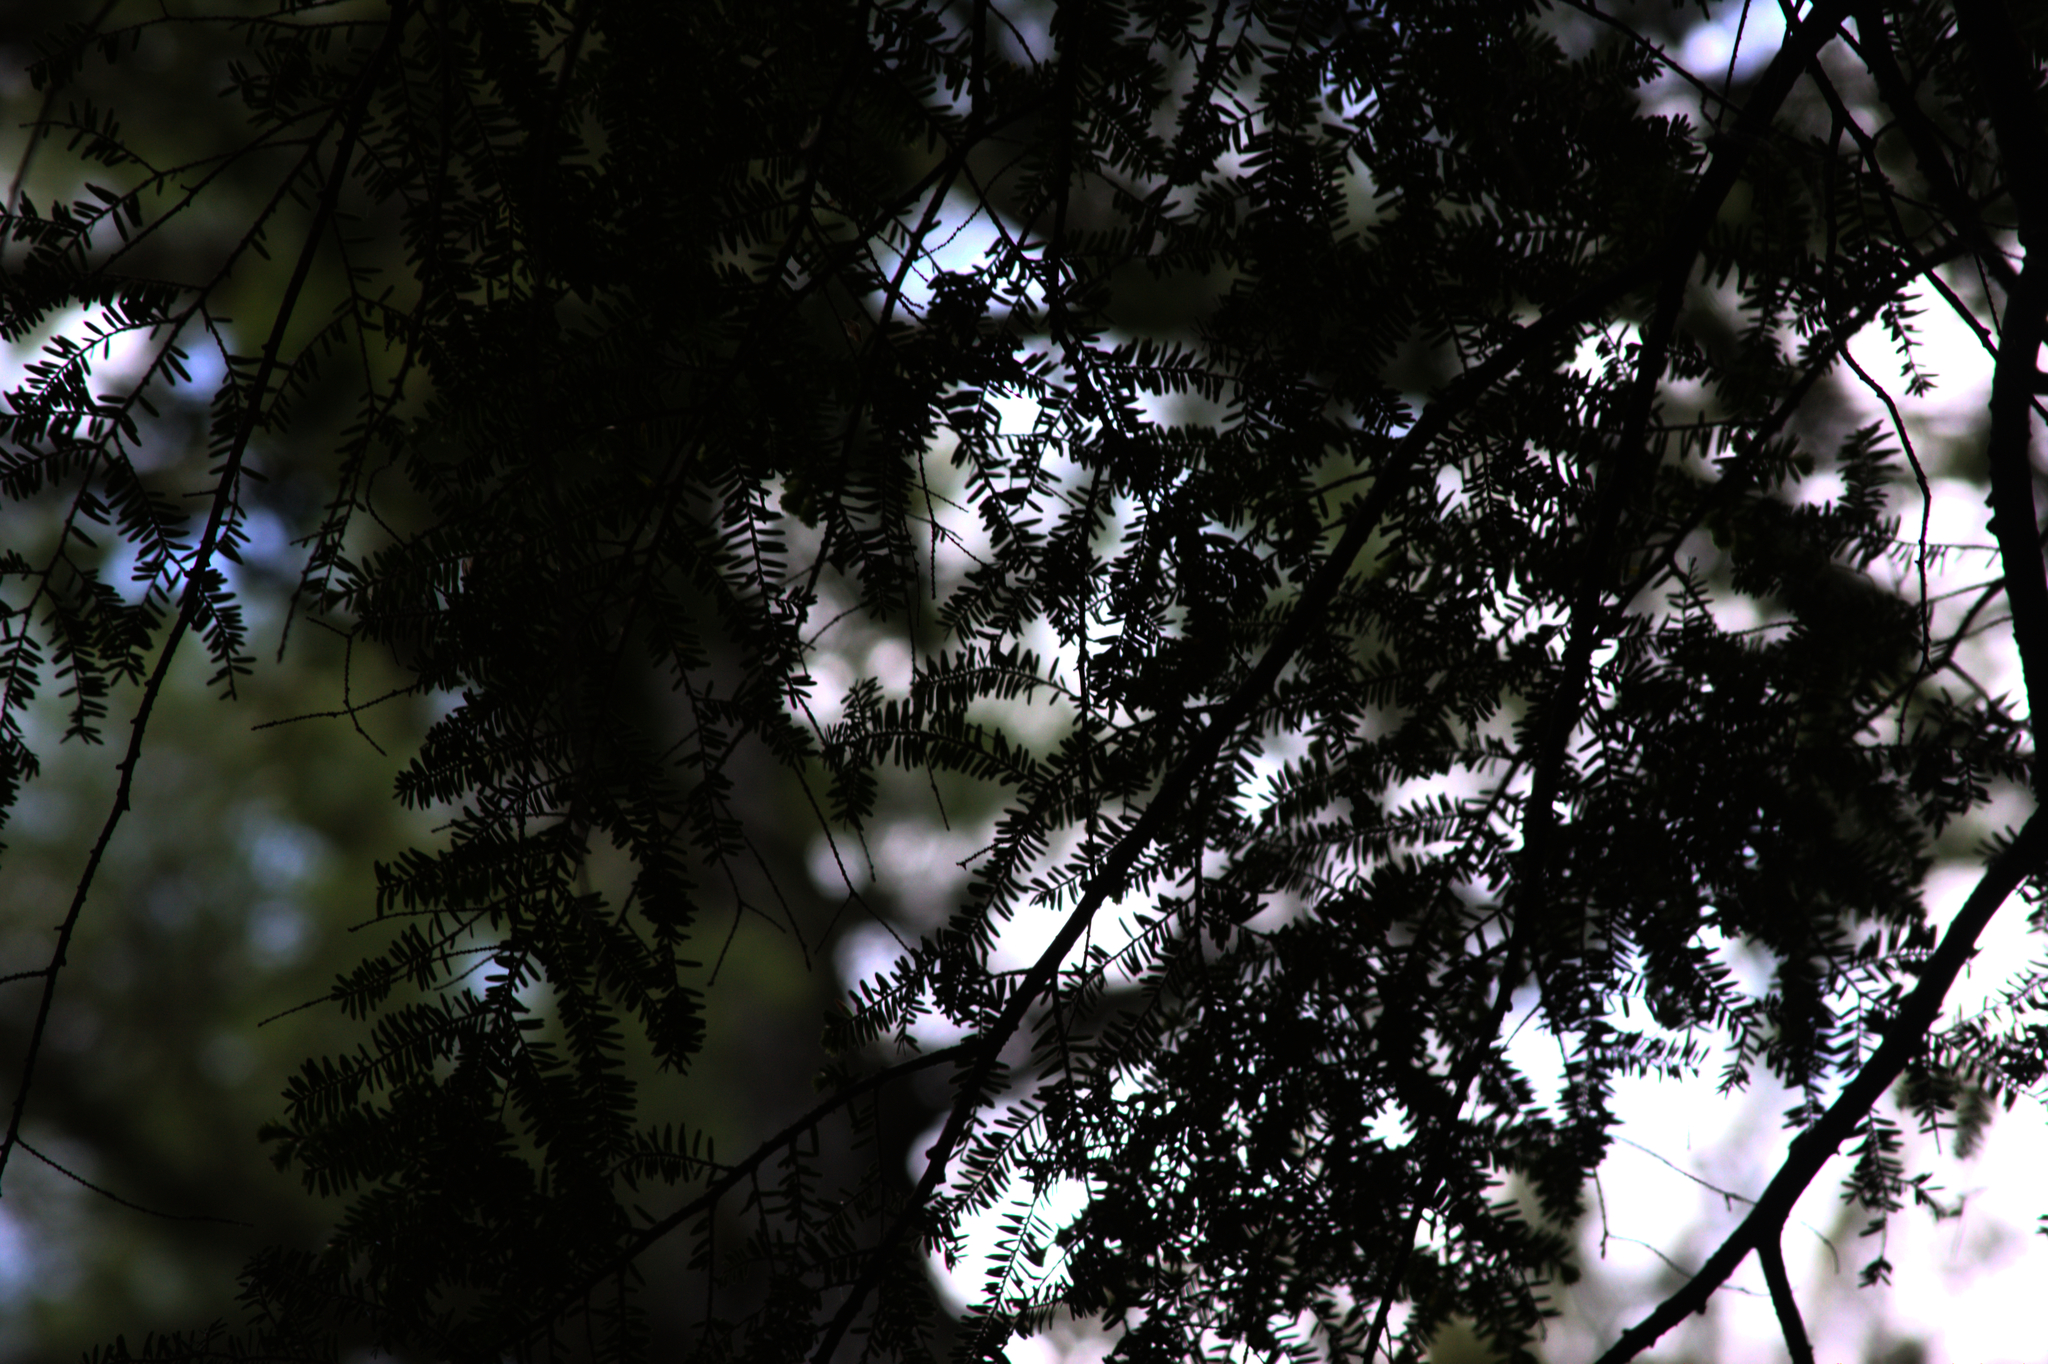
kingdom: Plantae
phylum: Tracheophyta
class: Pinopsida
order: Pinales
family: Pinaceae
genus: Tsuga
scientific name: Tsuga canadensis
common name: Eastern hemlock
